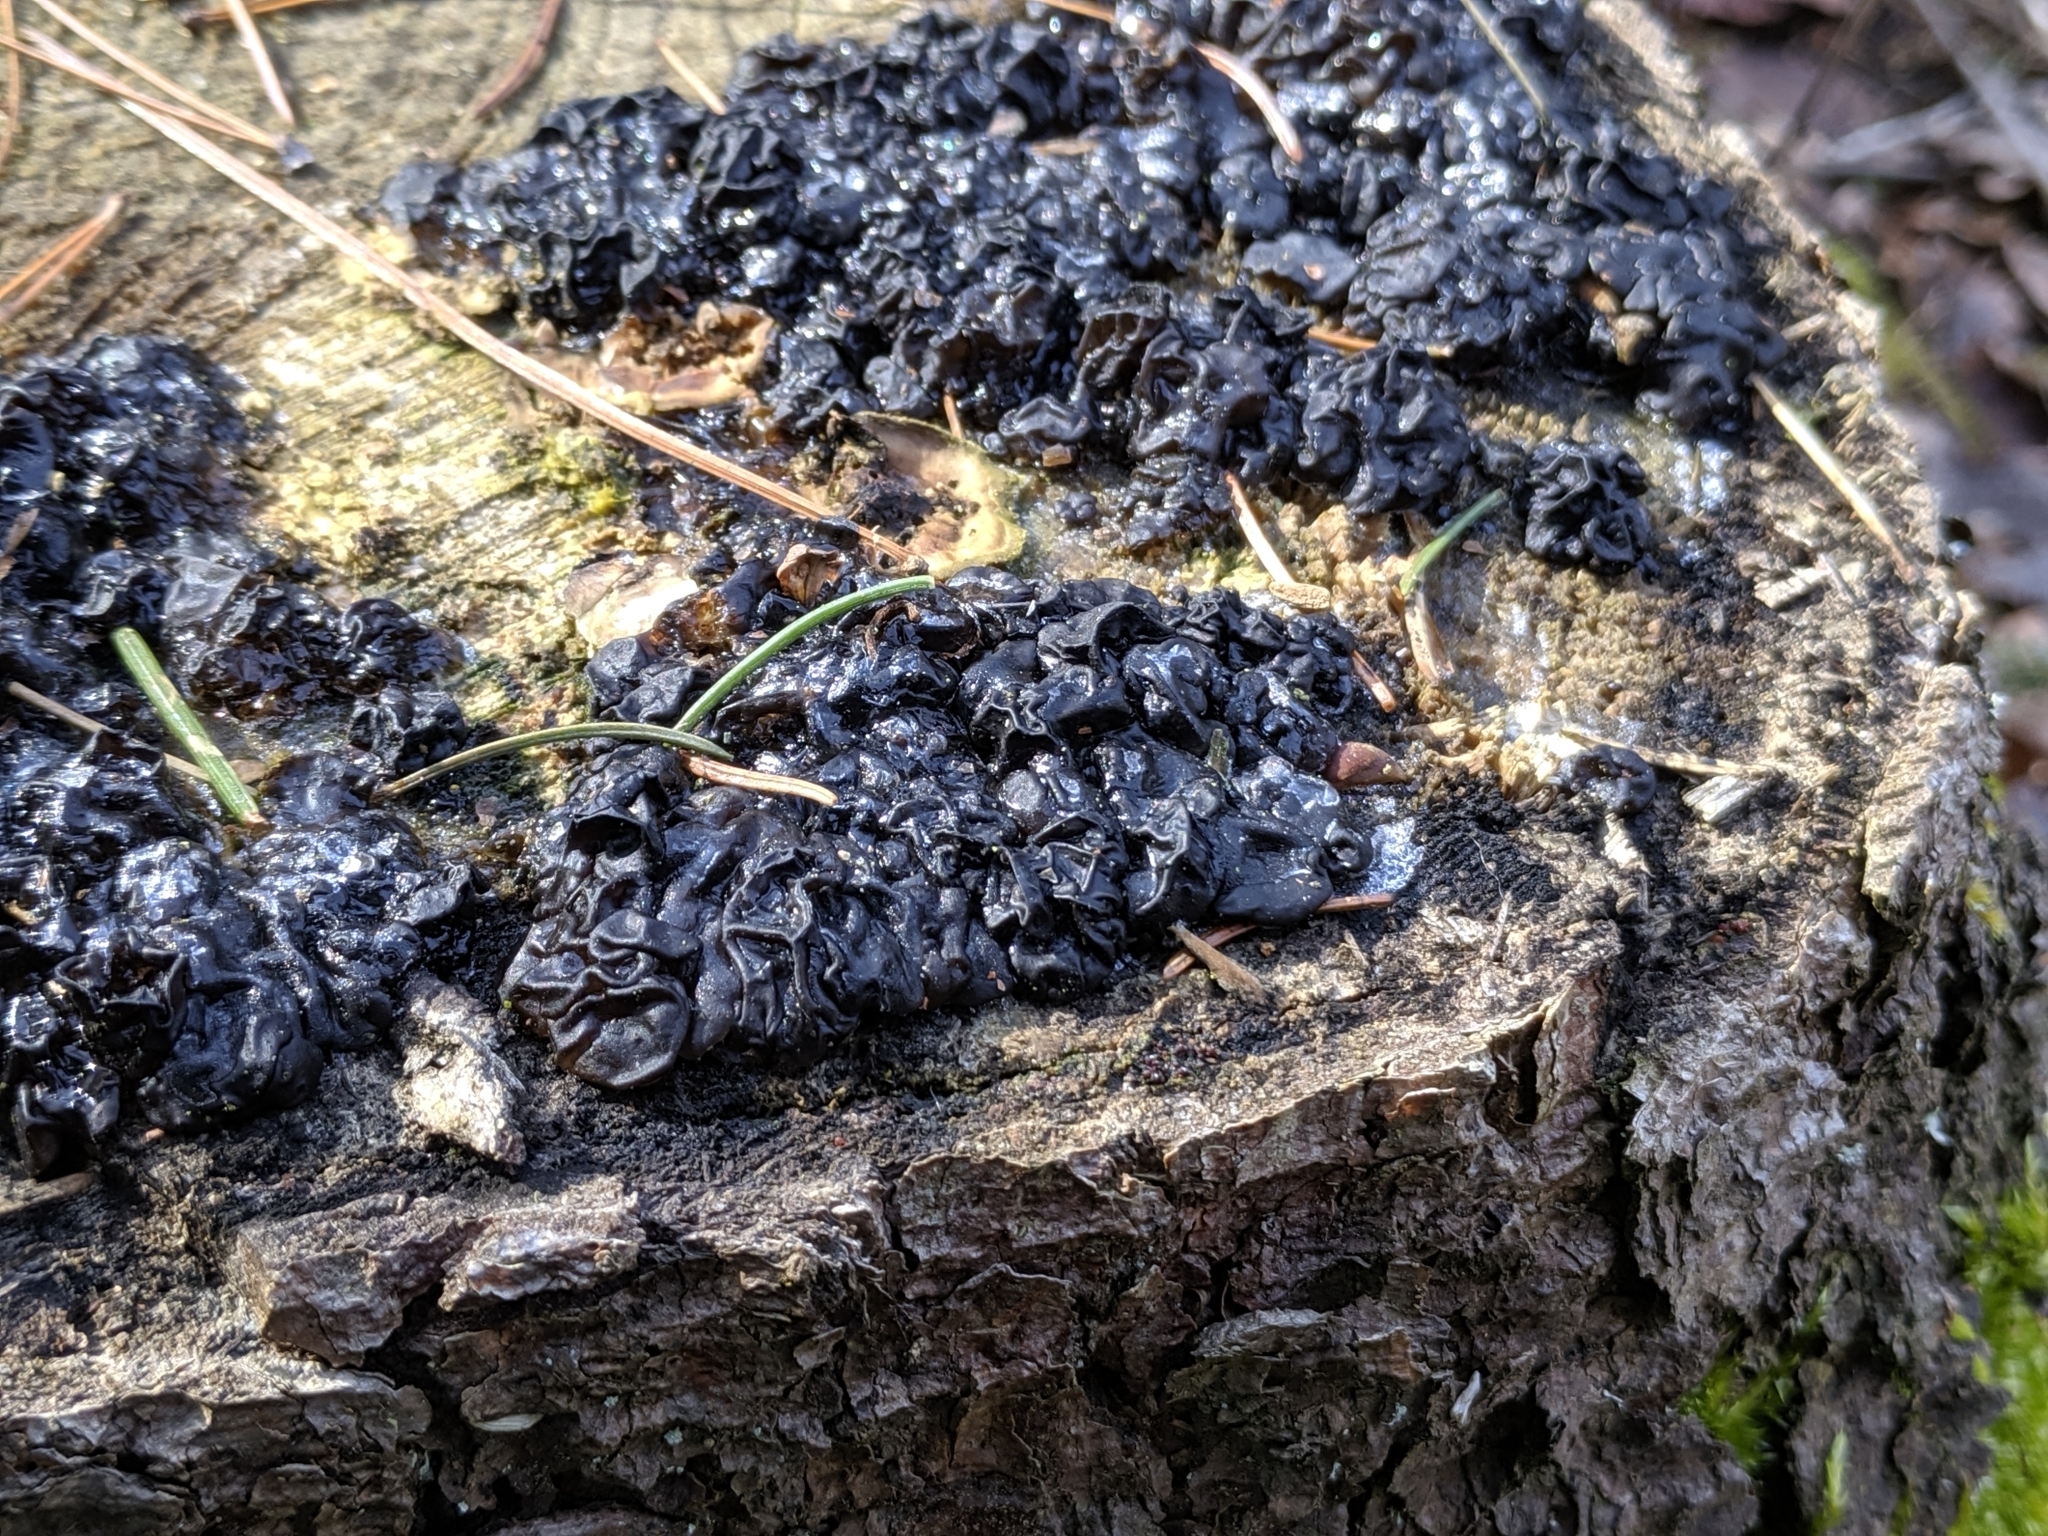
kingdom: Fungi
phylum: Basidiomycota
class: Agaricomycetes
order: Auriculariales
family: Auriculariaceae
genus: Exidia
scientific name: Exidia
